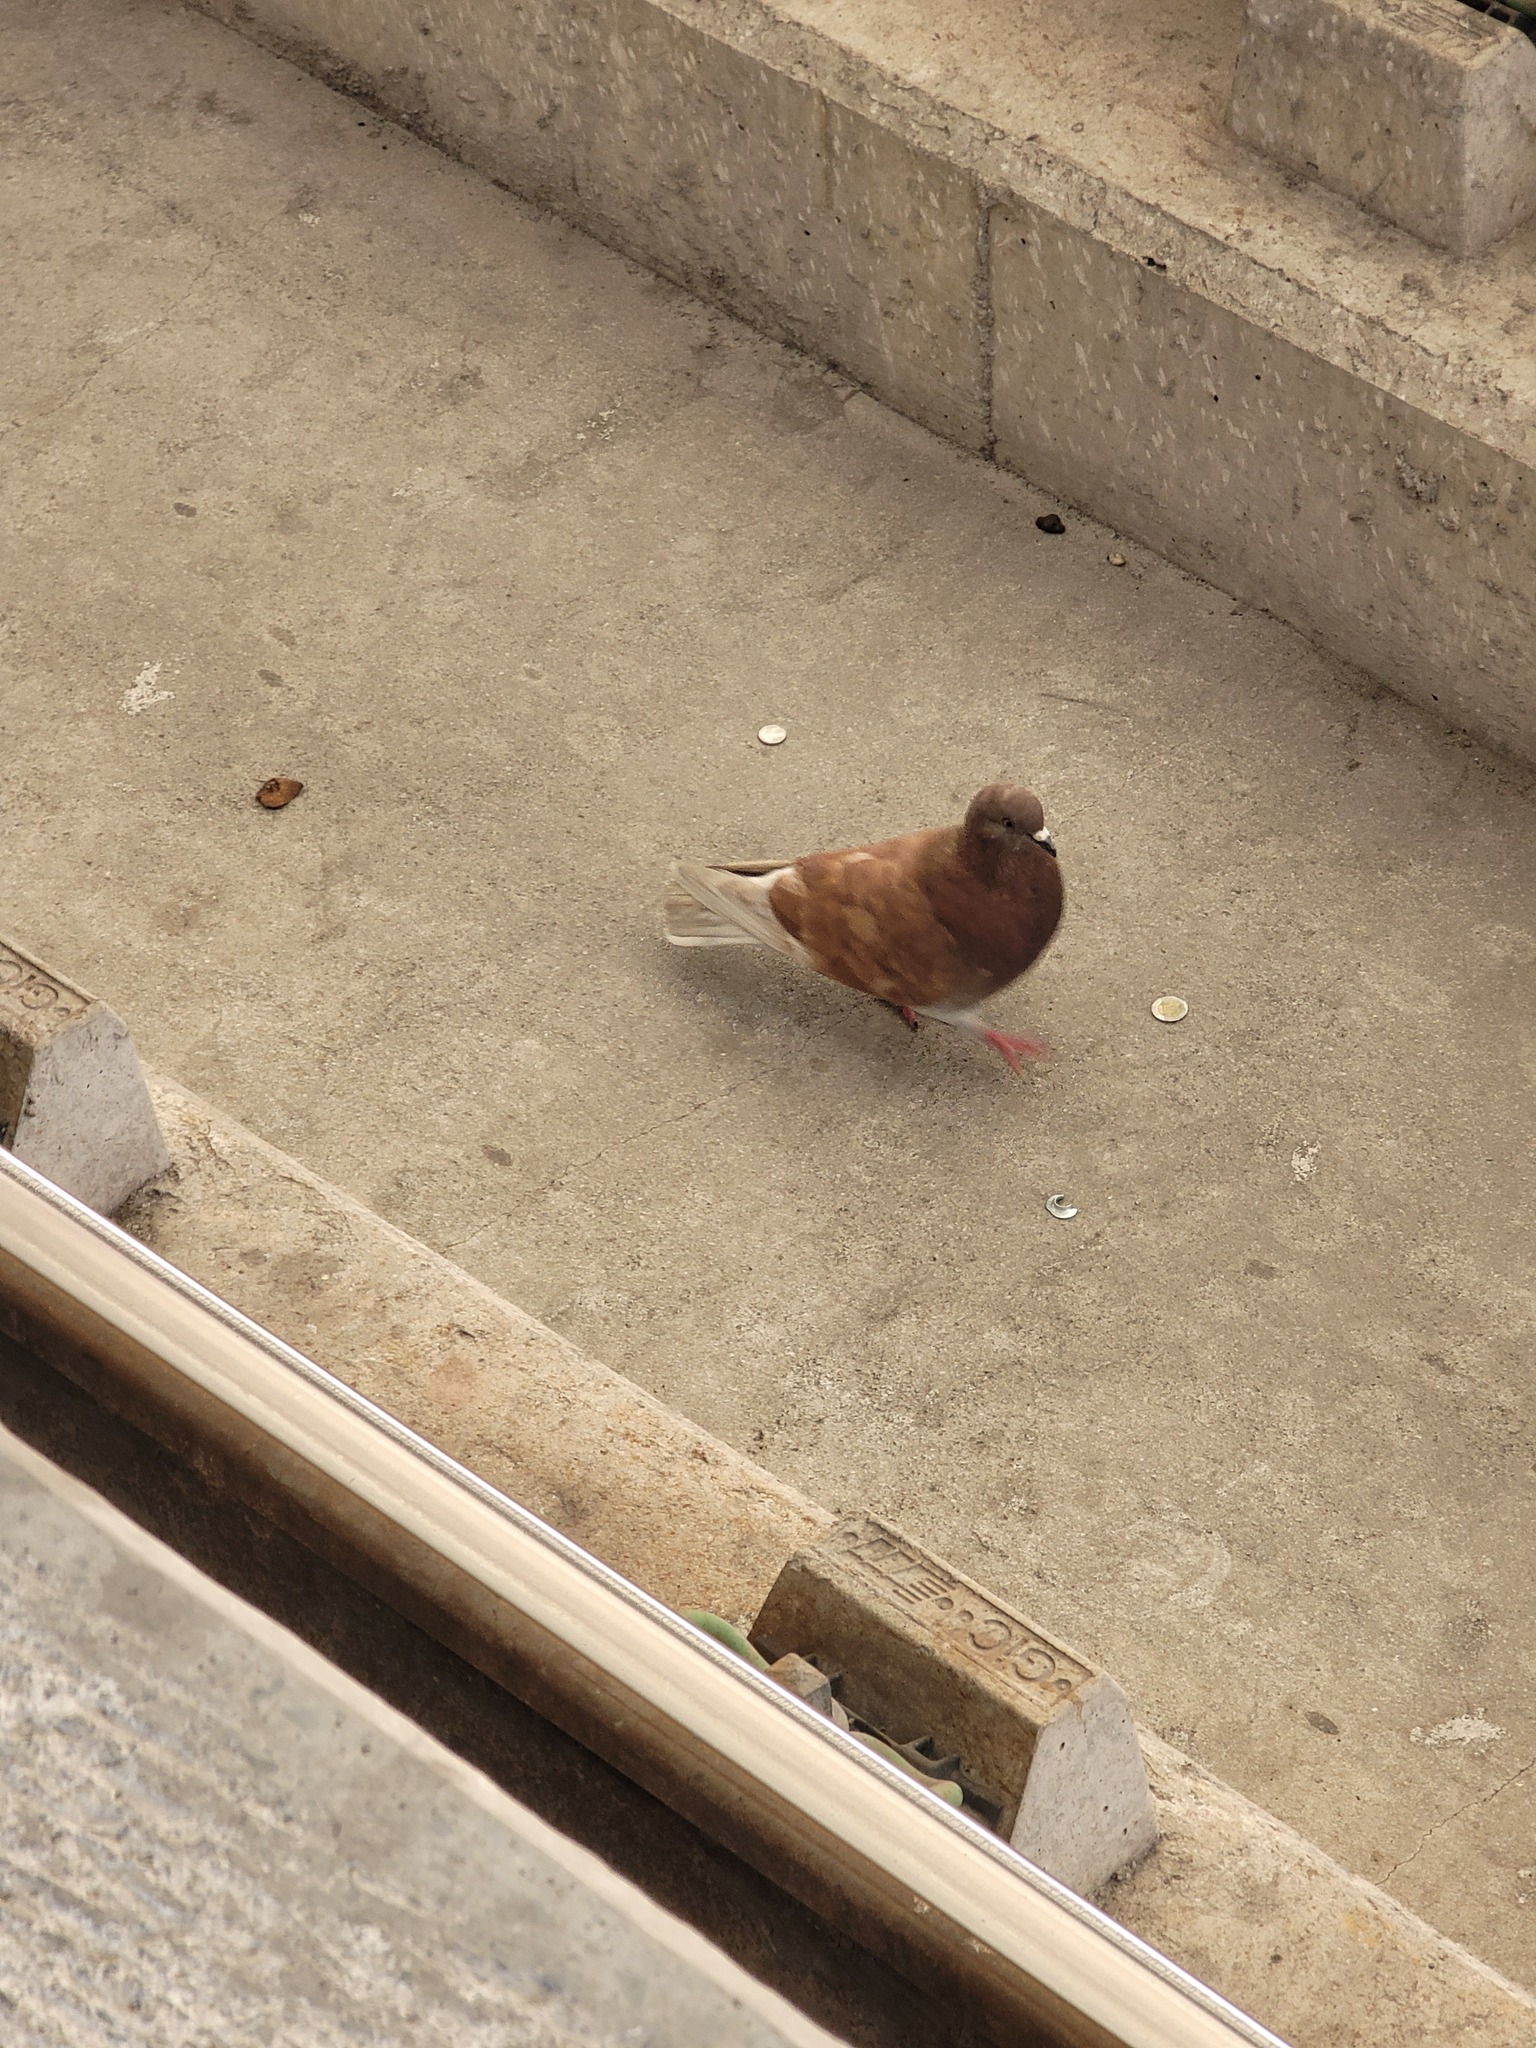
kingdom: Animalia
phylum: Chordata
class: Aves
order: Columbiformes
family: Columbidae
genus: Columba
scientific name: Columba livia
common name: Rock pigeon
